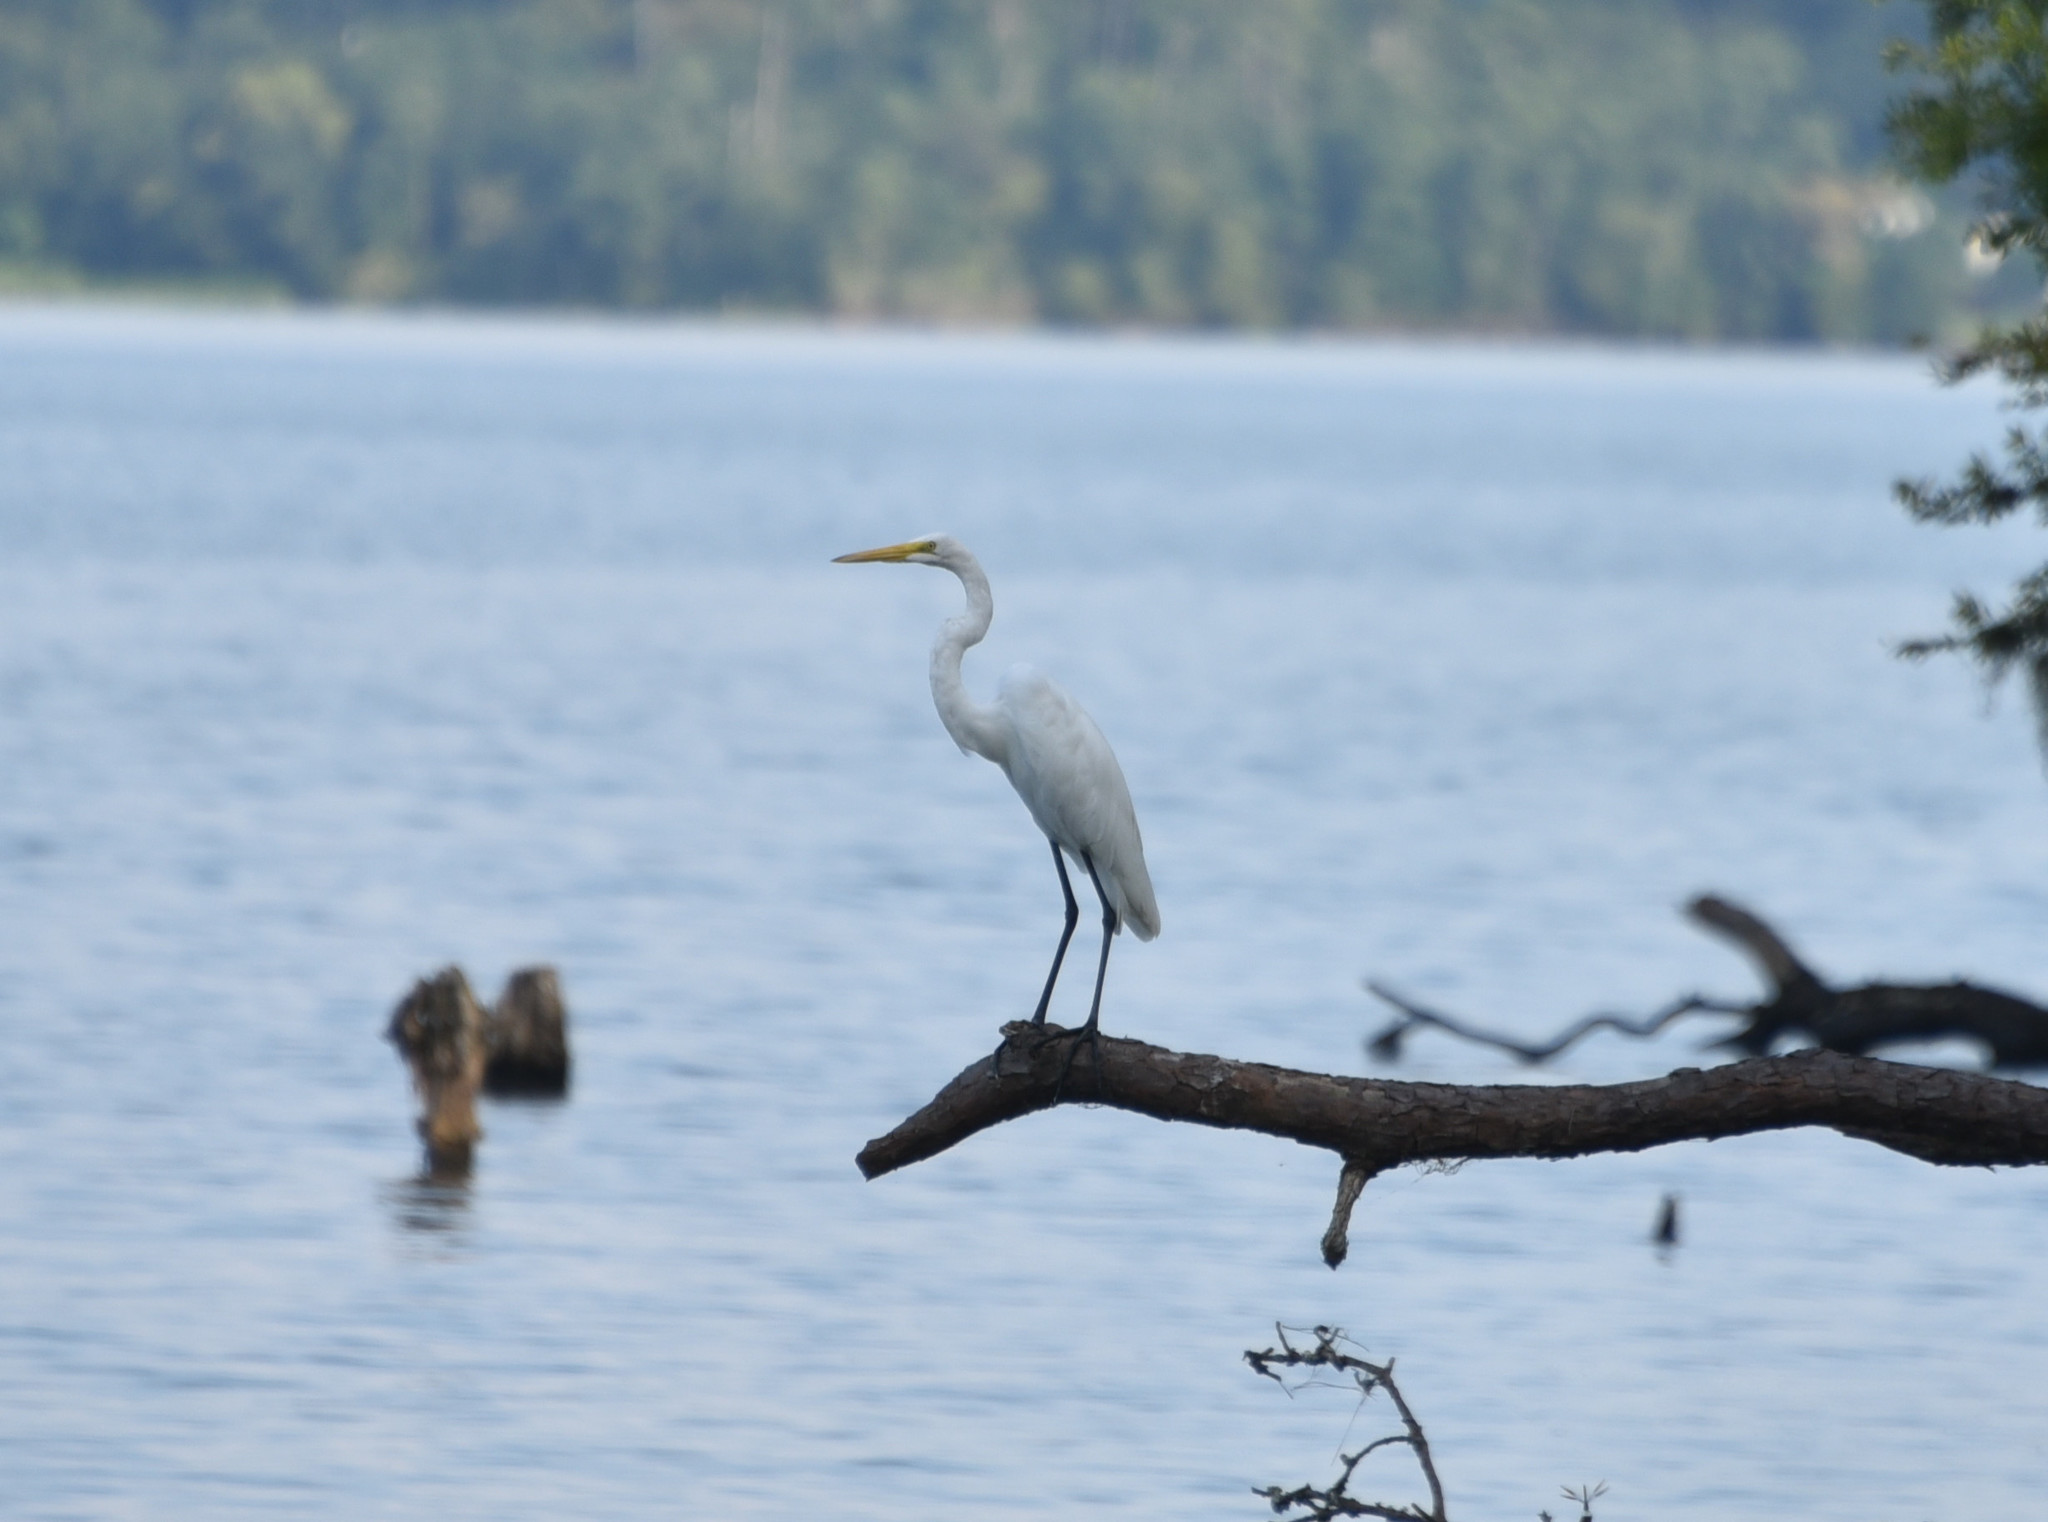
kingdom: Animalia
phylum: Chordata
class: Aves
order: Pelecaniformes
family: Ardeidae
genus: Ardea
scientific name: Ardea alba
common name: Great egret
